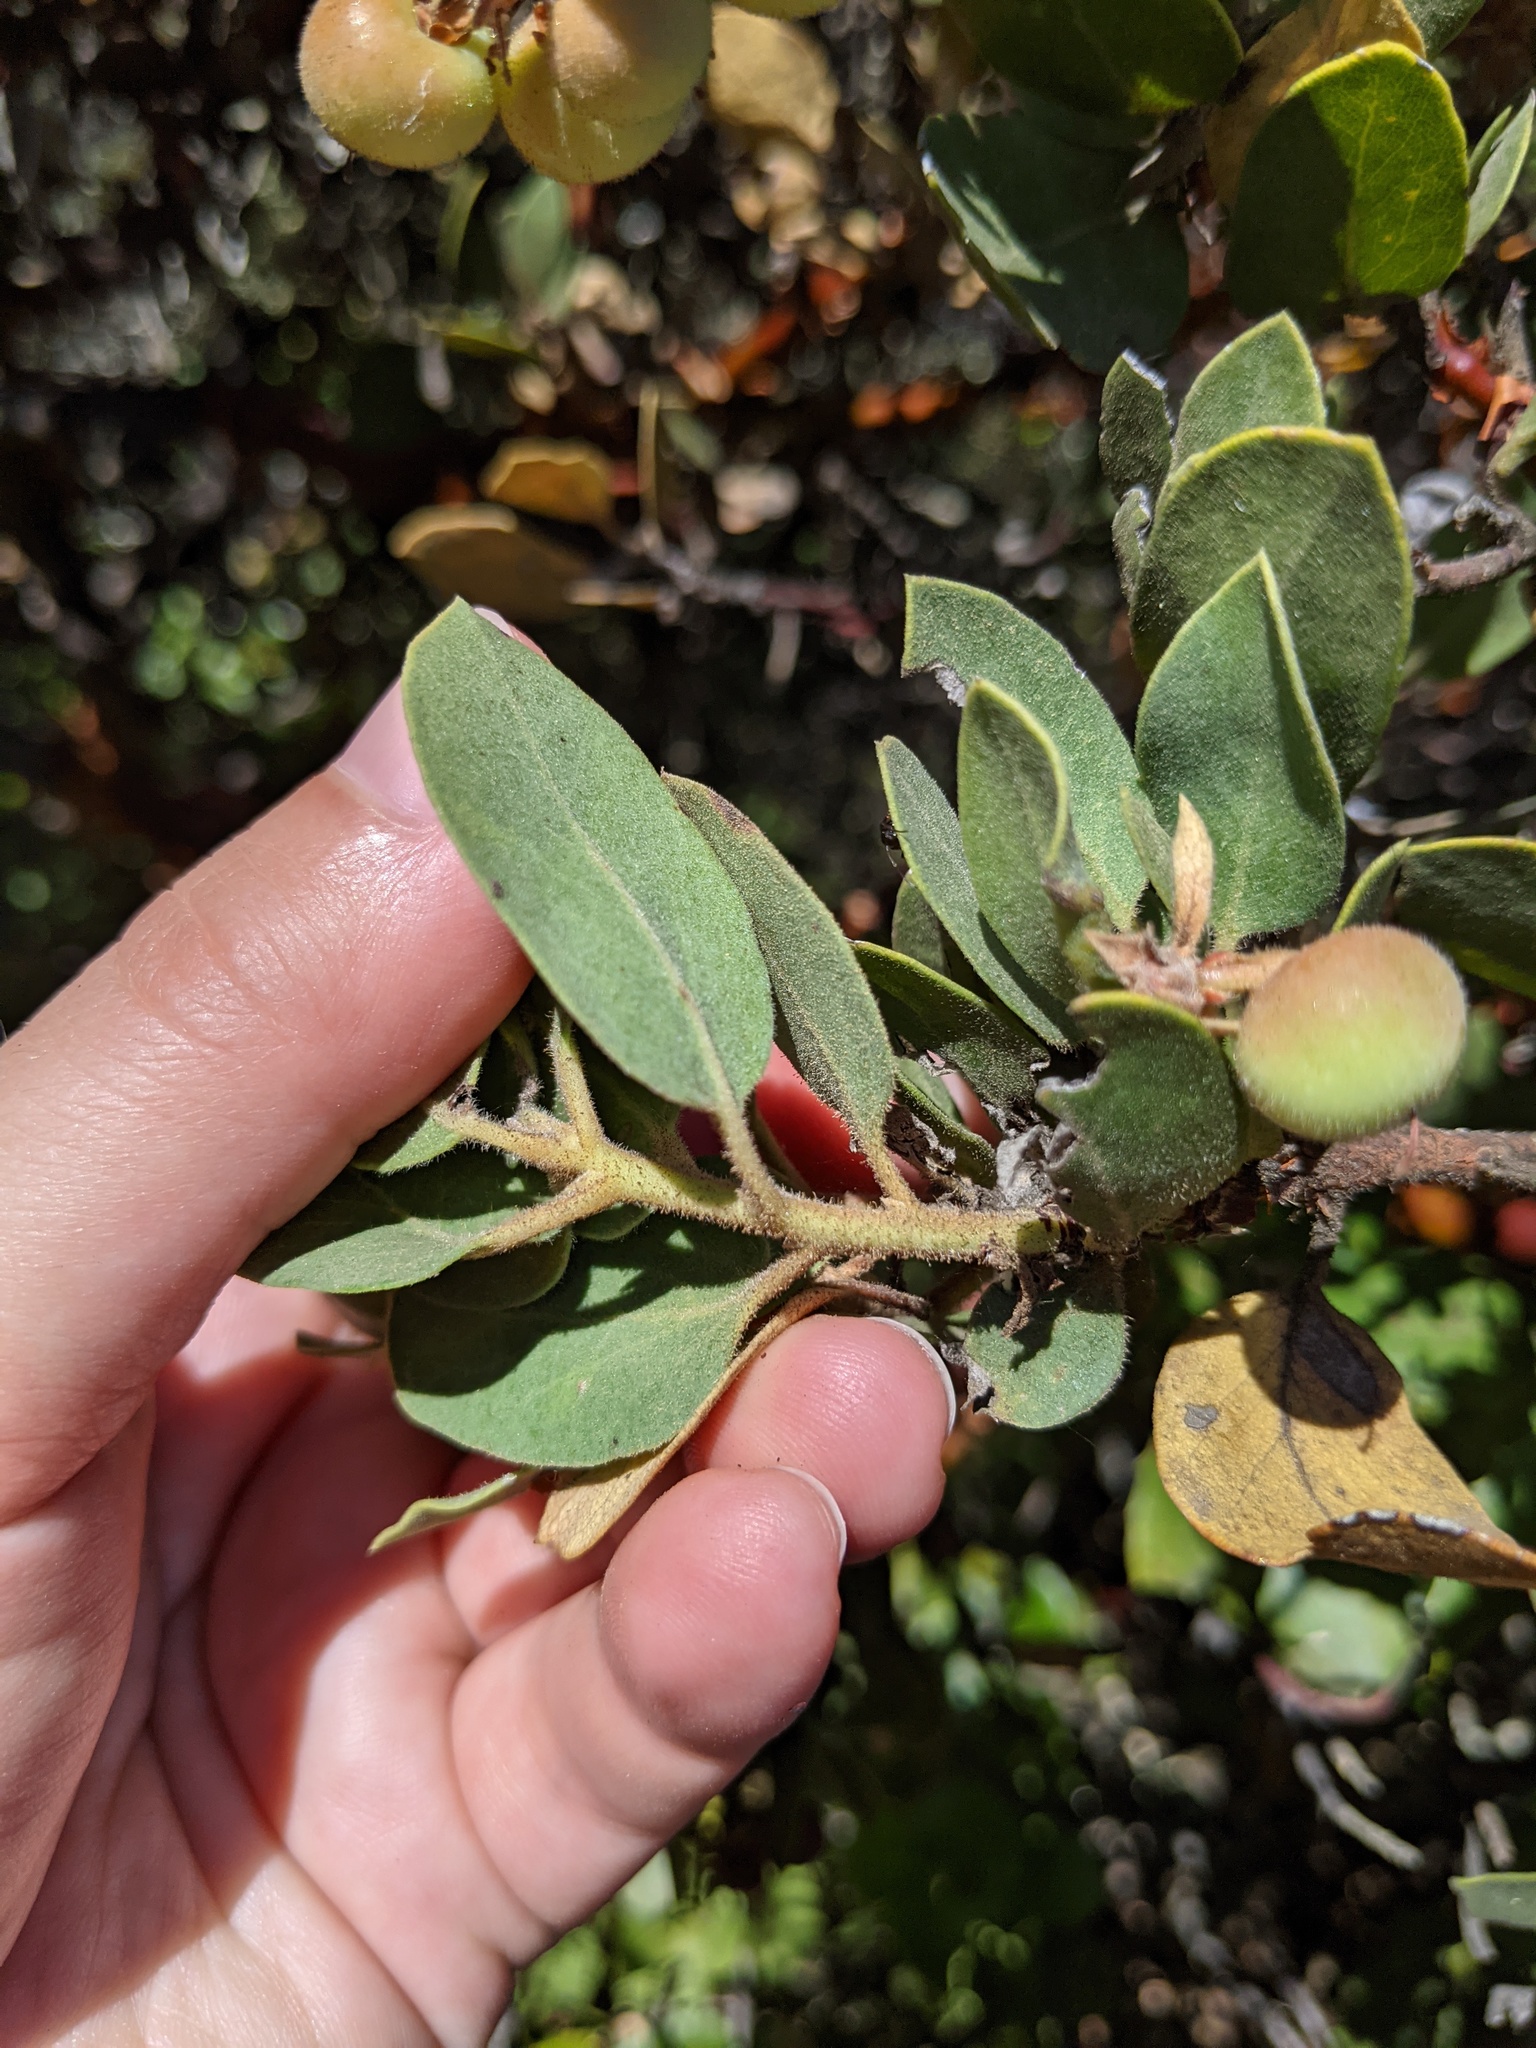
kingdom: Plantae
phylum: Tracheophyta
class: Magnoliopsida
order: Ericales
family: Ericaceae
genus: Arctostaphylos
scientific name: Arctostaphylos glandulosa
